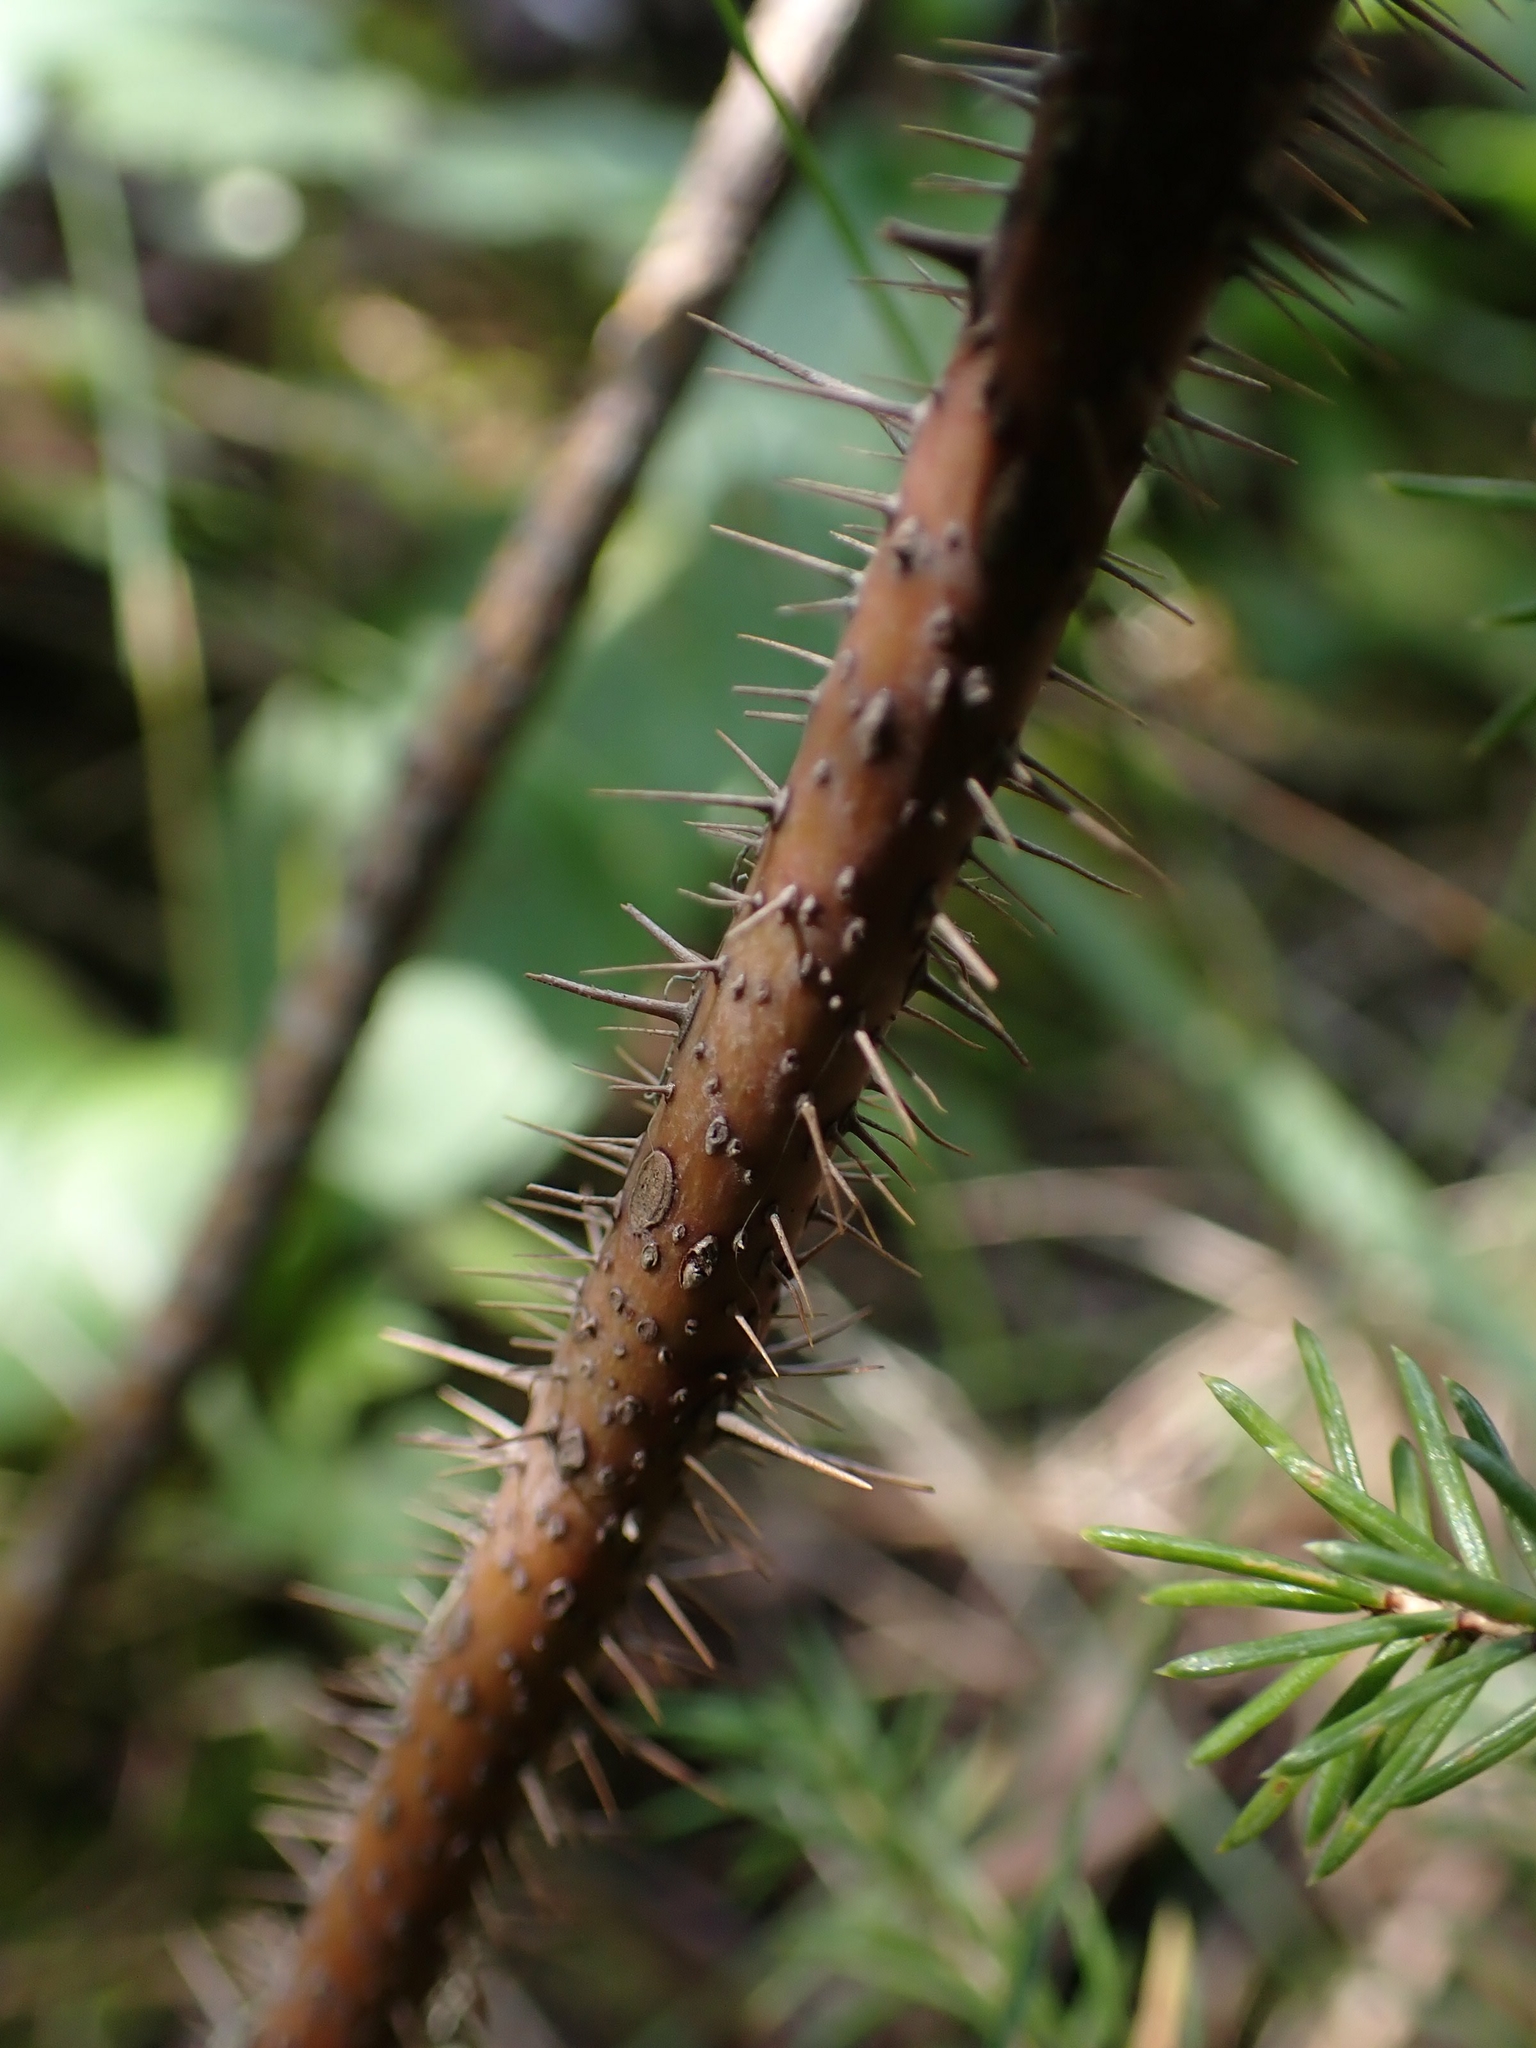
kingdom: Plantae
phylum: Tracheophyta
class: Magnoliopsida
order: Rosales
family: Rosaceae
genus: Rosa
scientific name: Rosa woodsii
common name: Woods's rose
